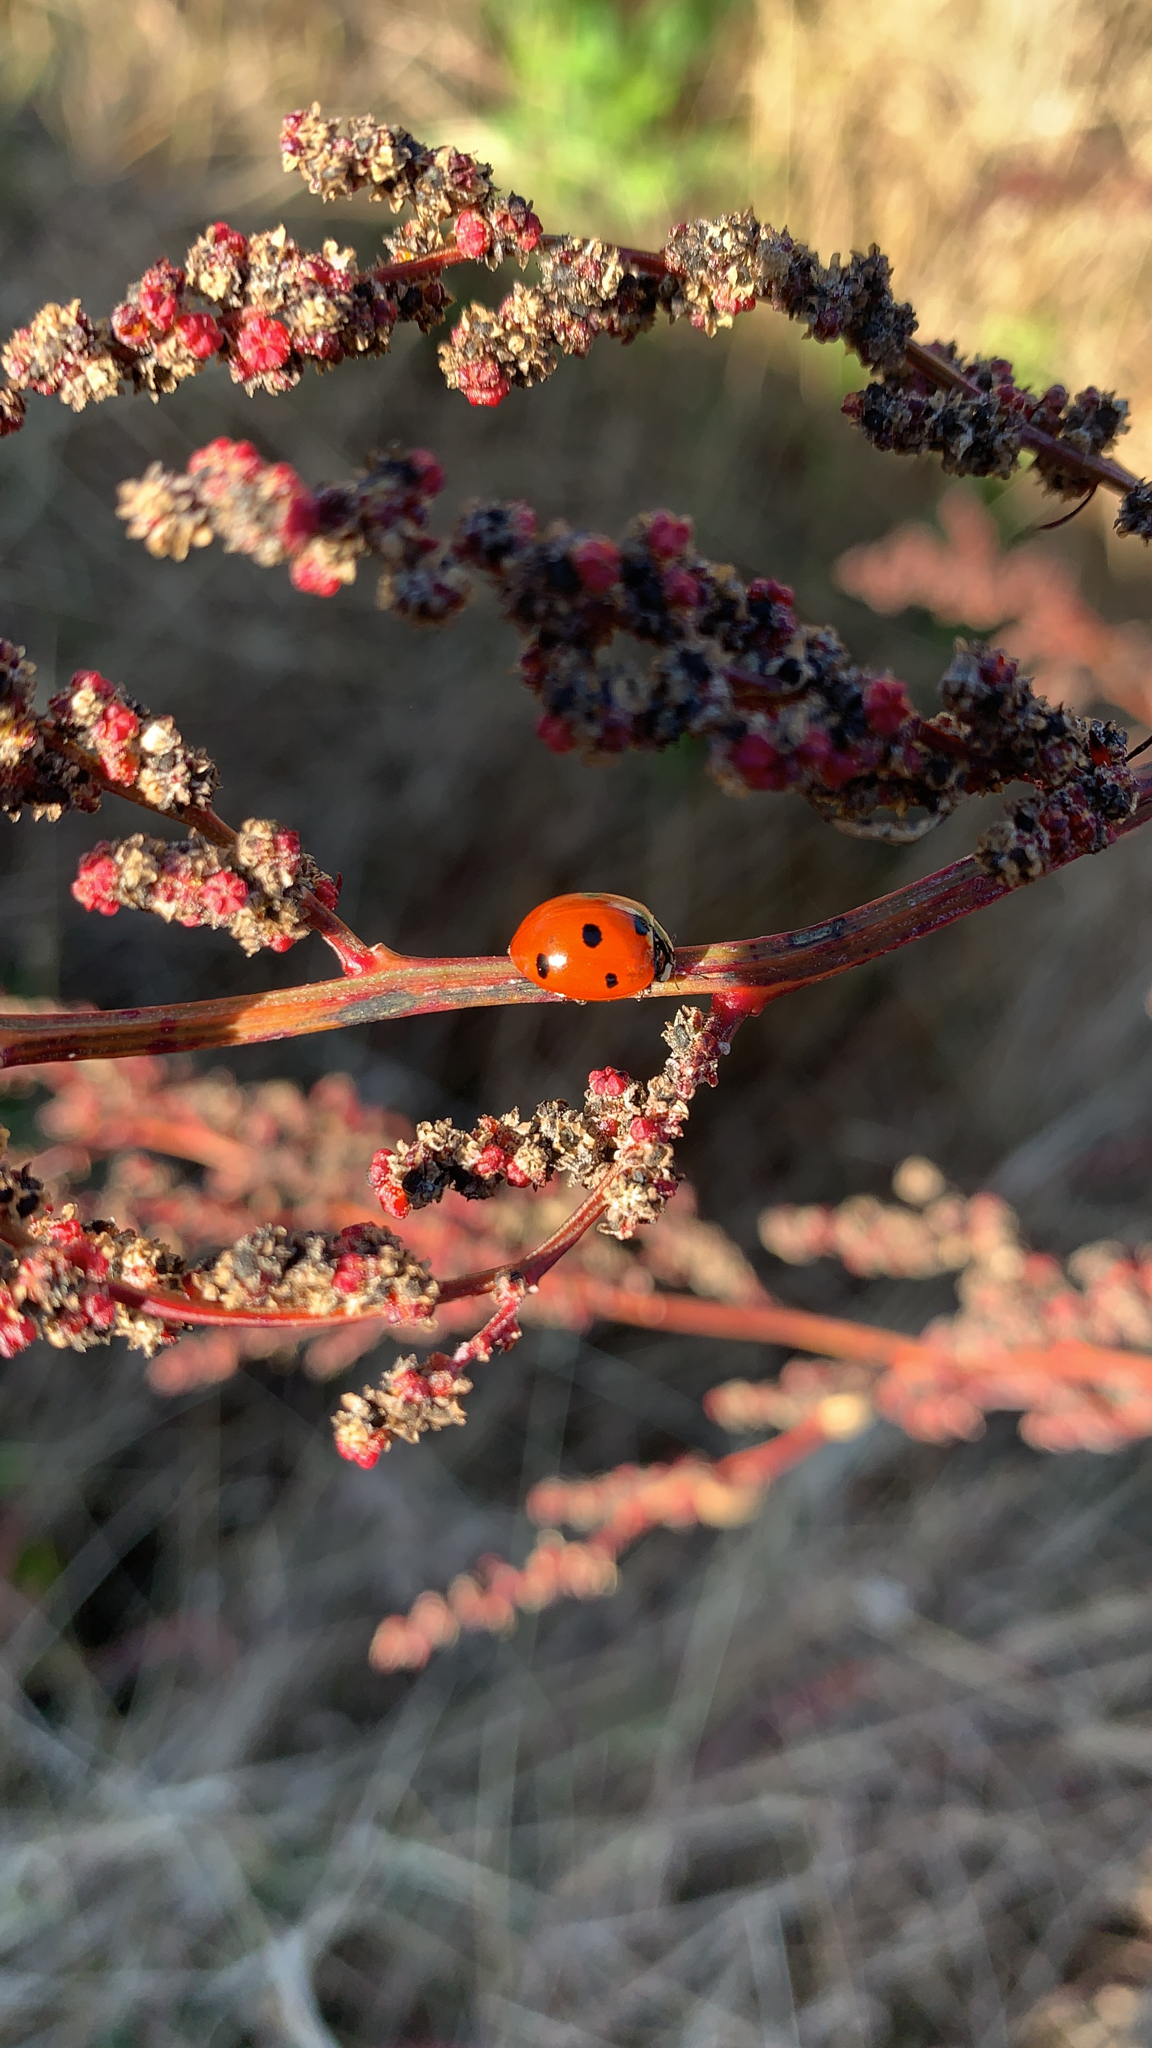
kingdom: Animalia
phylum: Arthropoda
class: Insecta
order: Coleoptera
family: Coccinellidae
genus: Coccinella
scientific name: Coccinella septempunctata
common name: Sevenspotted lady beetle
